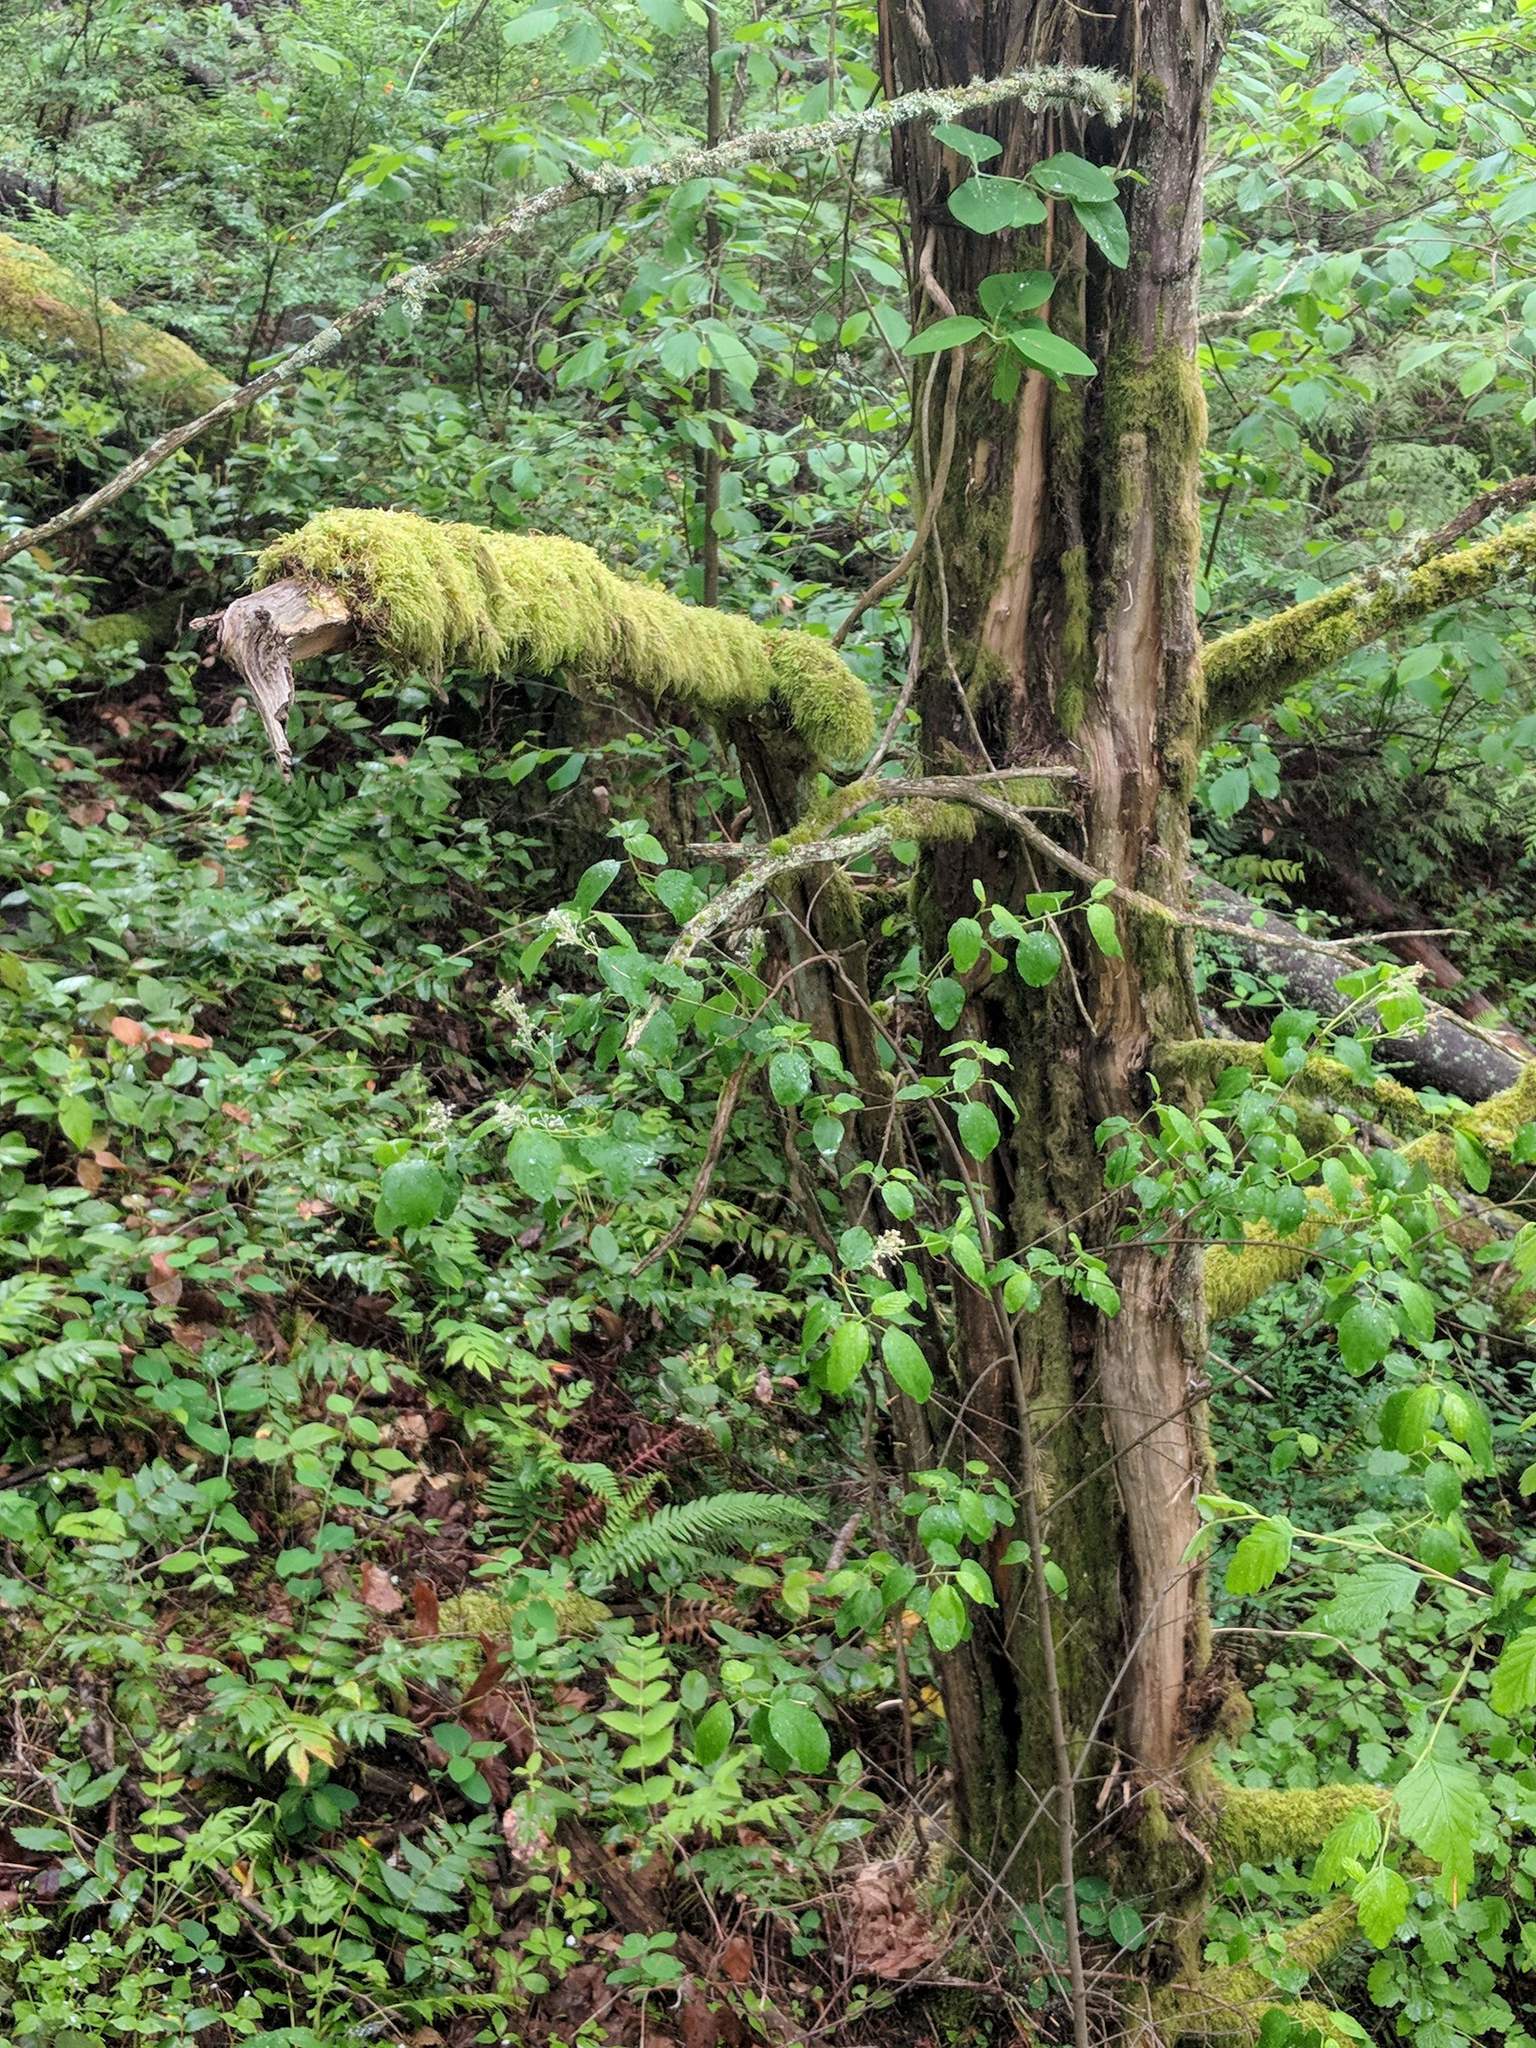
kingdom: Plantae
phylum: Tracheophyta
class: Magnoliopsida
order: Rosales
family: Rhamnaceae
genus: Ceanothus
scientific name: Ceanothus sanguineus
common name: Teatree
